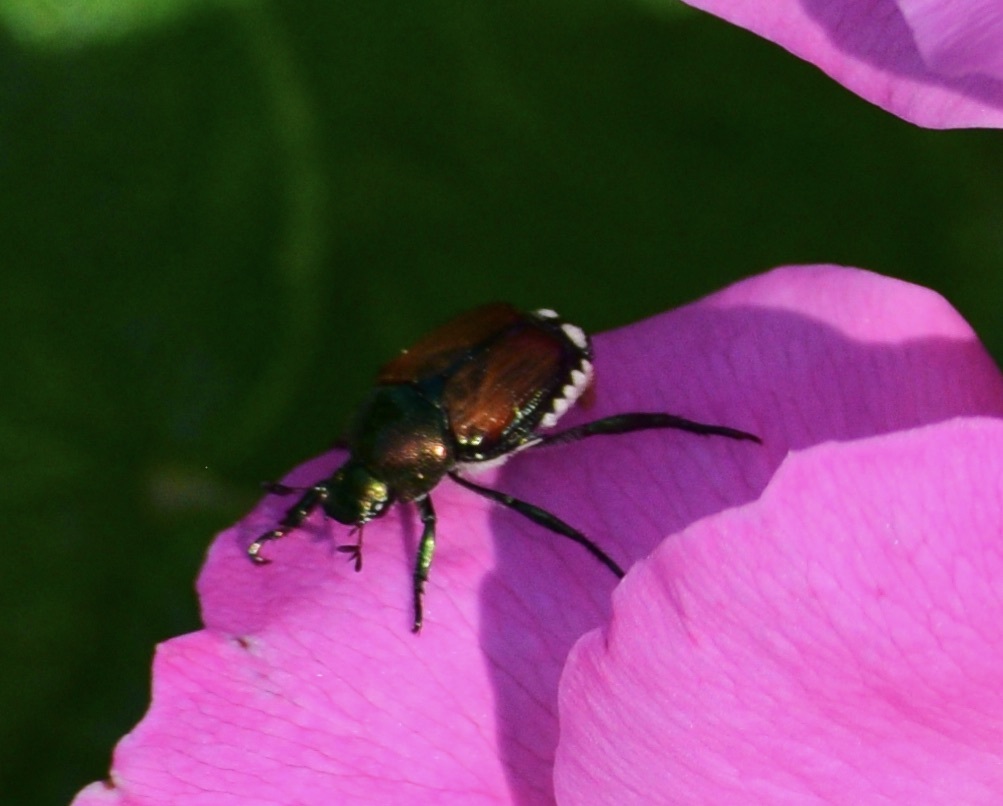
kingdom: Animalia
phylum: Arthropoda
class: Insecta
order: Coleoptera
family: Scarabaeidae
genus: Popillia
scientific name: Popillia japonica
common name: Japanese beetle
